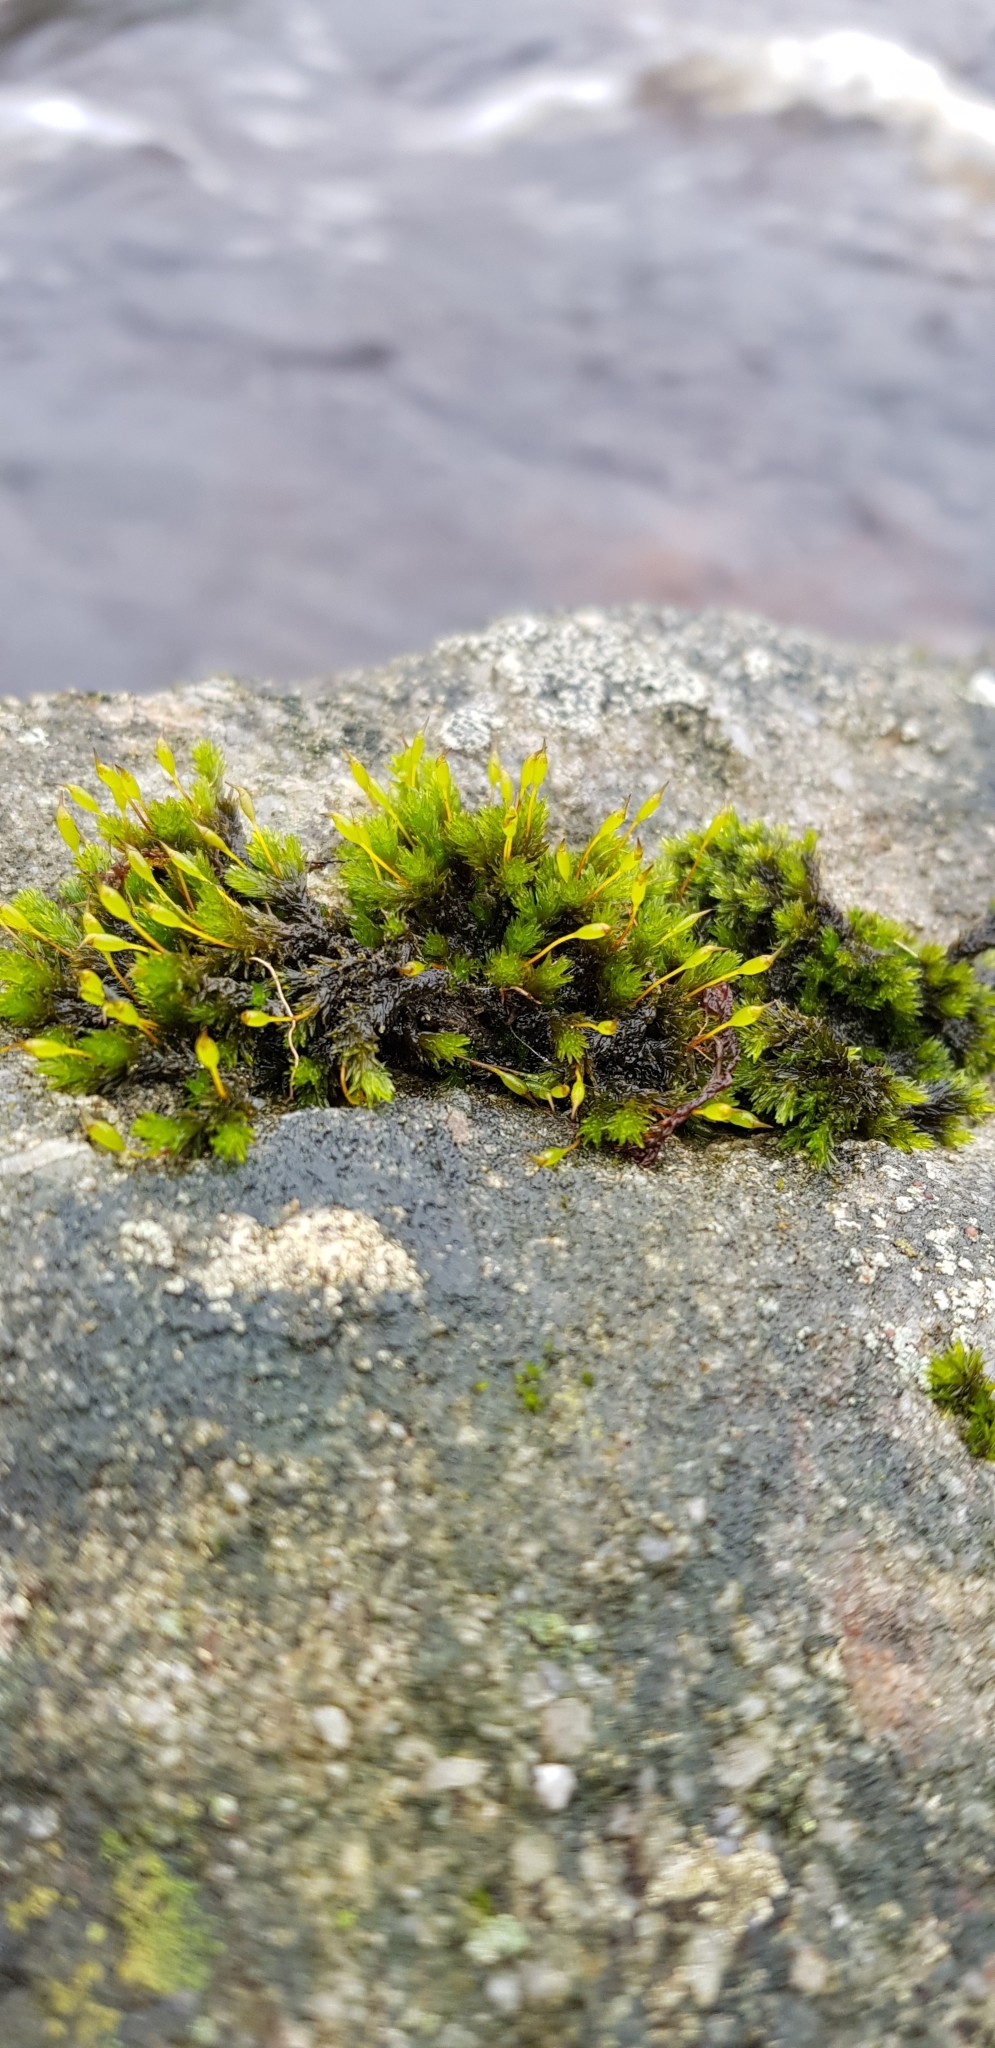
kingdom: Plantae
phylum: Bryophyta
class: Bryopsida
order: Grimmiales
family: Grimmiaceae
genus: Codriophorus
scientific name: Codriophorus acicularis
